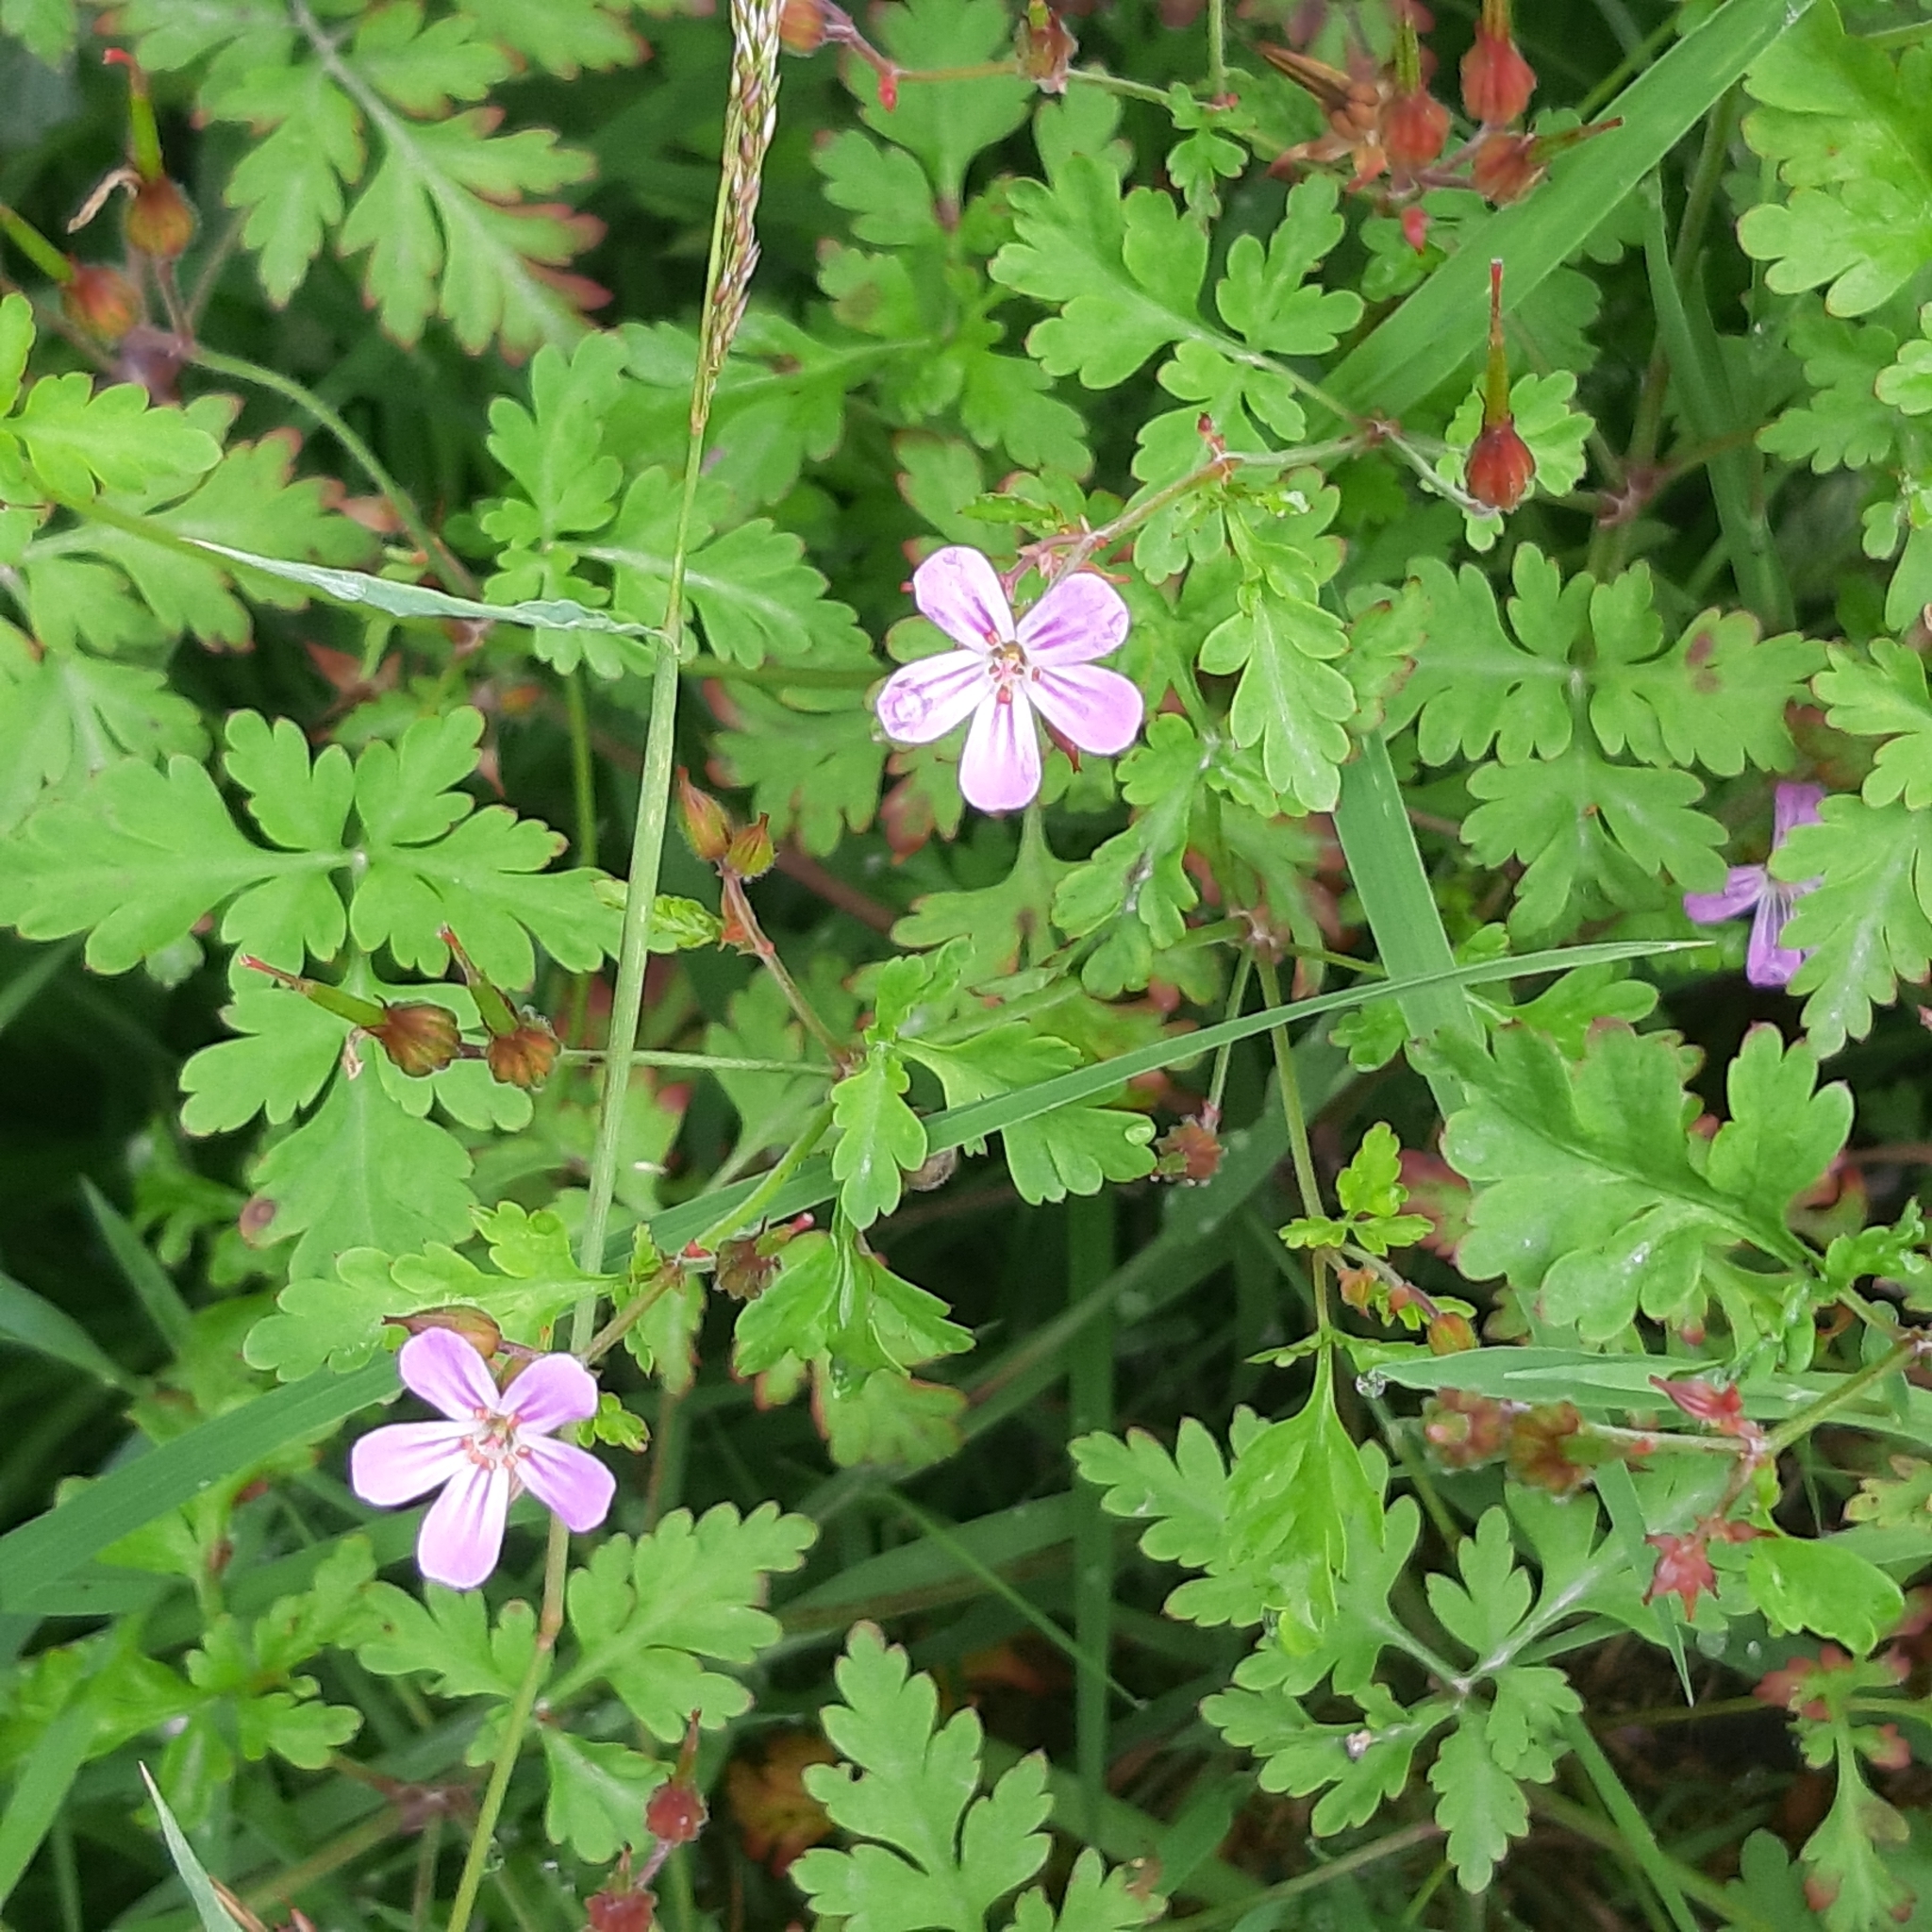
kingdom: Plantae
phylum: Tracheophyta
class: Magnoliopsida
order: Geraniales
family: Geraniaceae
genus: Geranium
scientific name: Geranium robertianum
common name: Herb-robert
